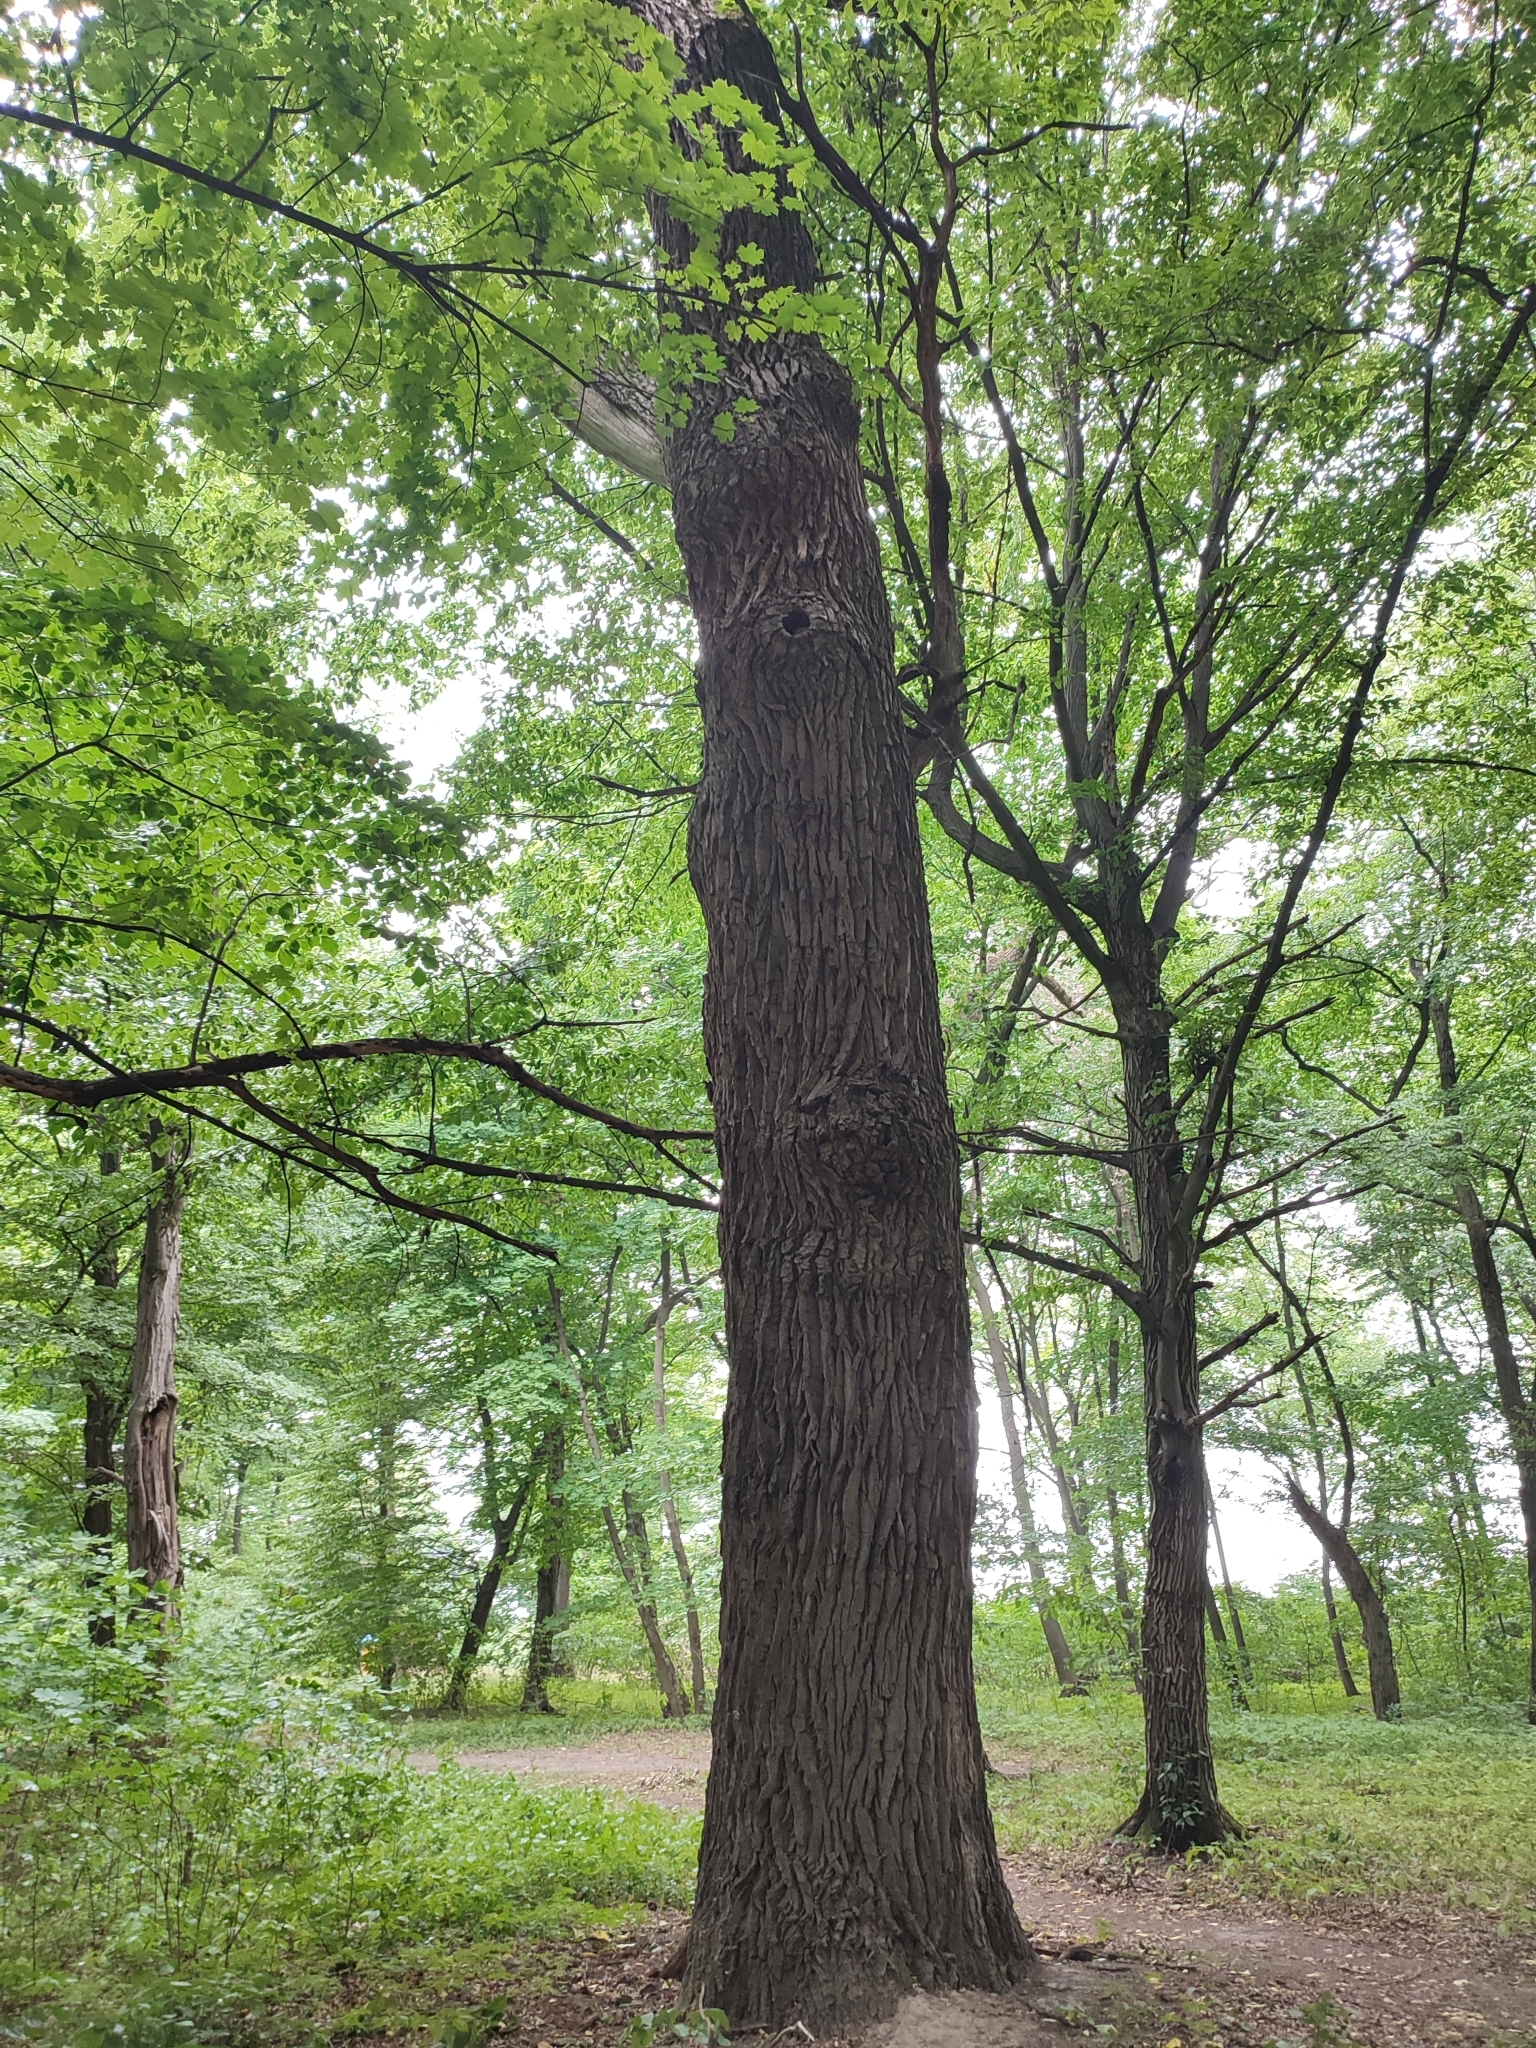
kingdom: Plantae
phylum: Tracheophyta
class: Magnoliopsida
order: Fagales
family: Fagaceae
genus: Quercus
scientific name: Quercus robur
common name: Pedunculate oak
